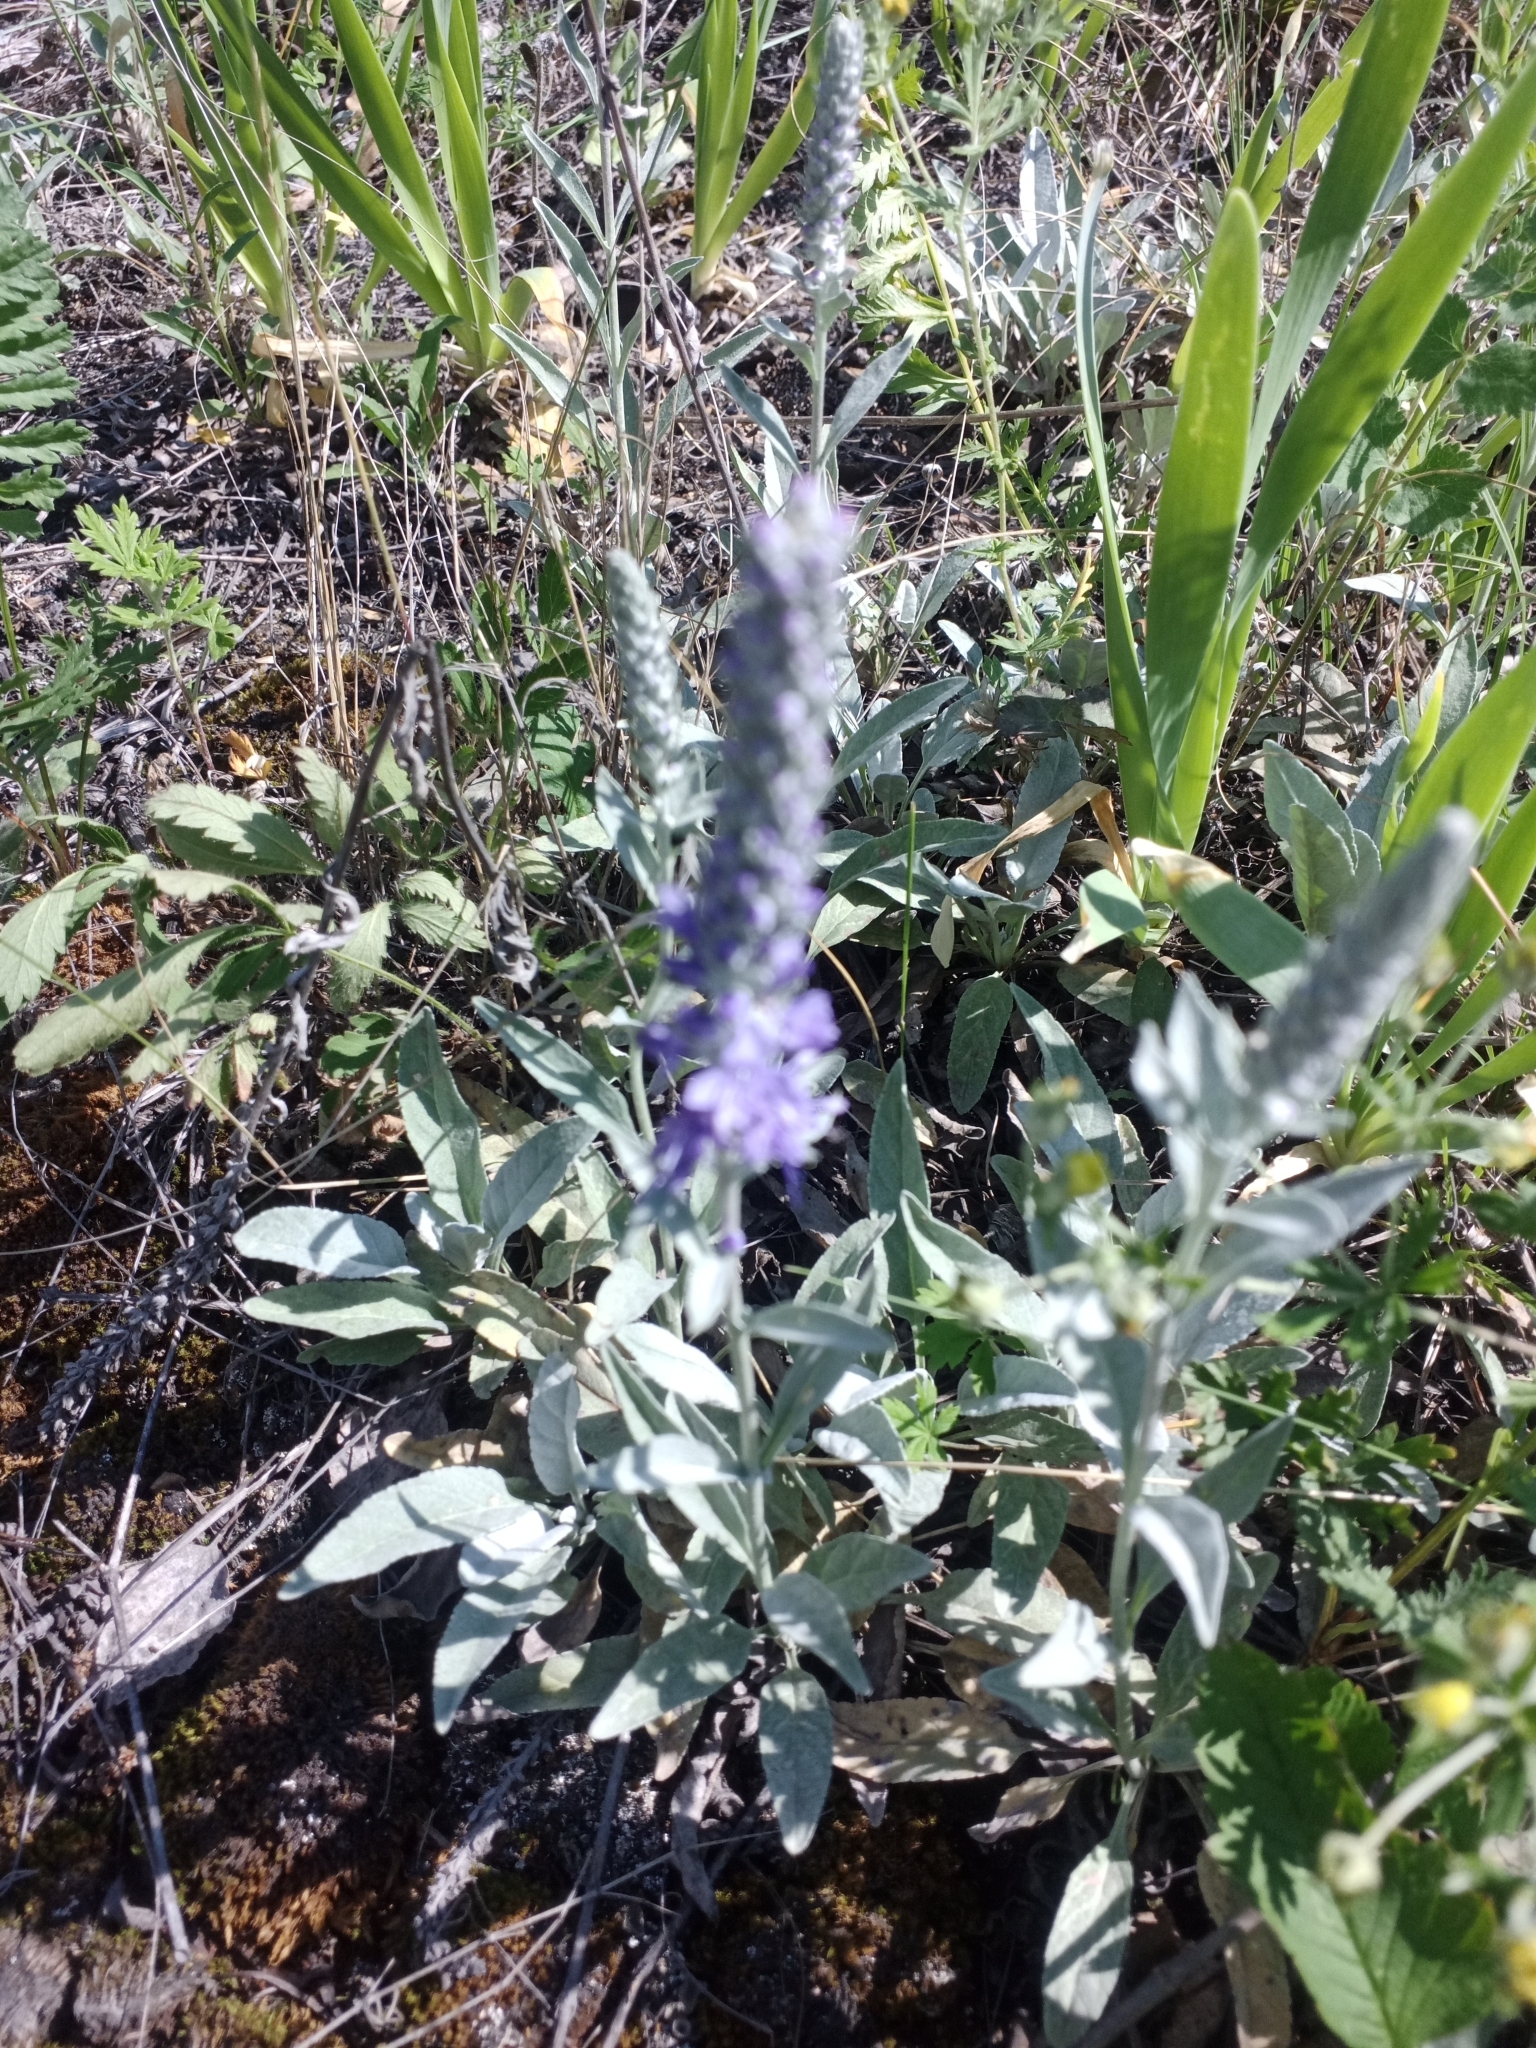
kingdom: Plantae
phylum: Tracheophyta
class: Magnoliopsida
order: Lamiales
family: Plantaginaceae
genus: Veronica
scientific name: Veronica incana
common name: Silver speedwell
